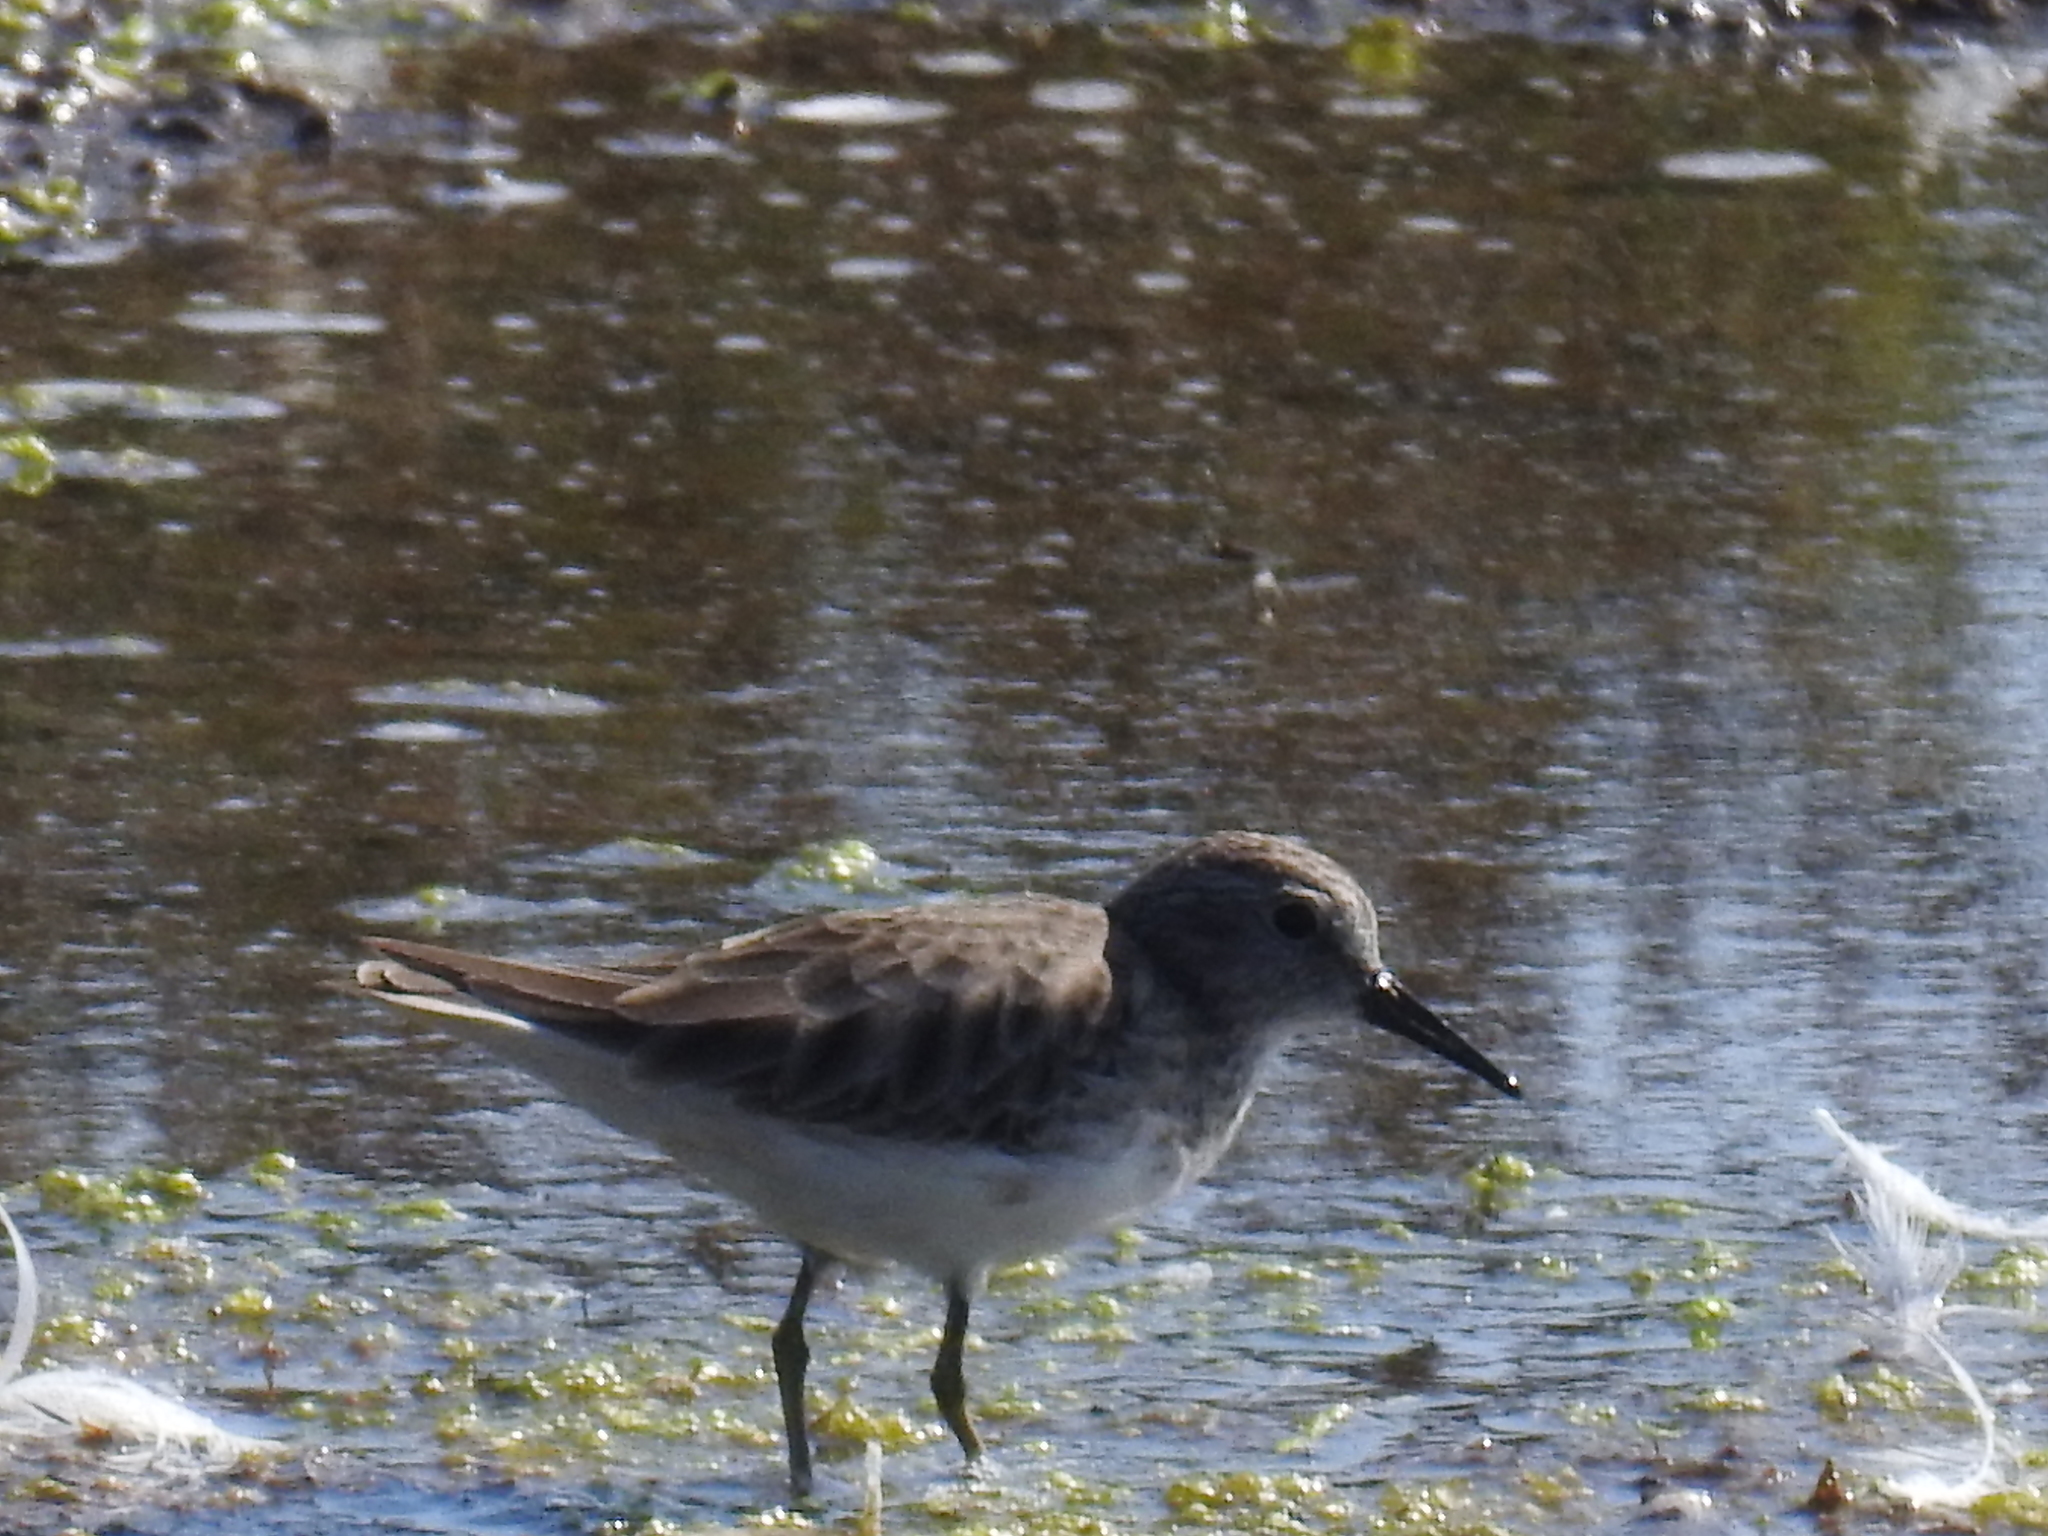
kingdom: Animalia
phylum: Chordata
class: Aves
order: Charadriiformes
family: Scolopacidae
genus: Calidris
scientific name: Calidris minutilla
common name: Least sandpiper
